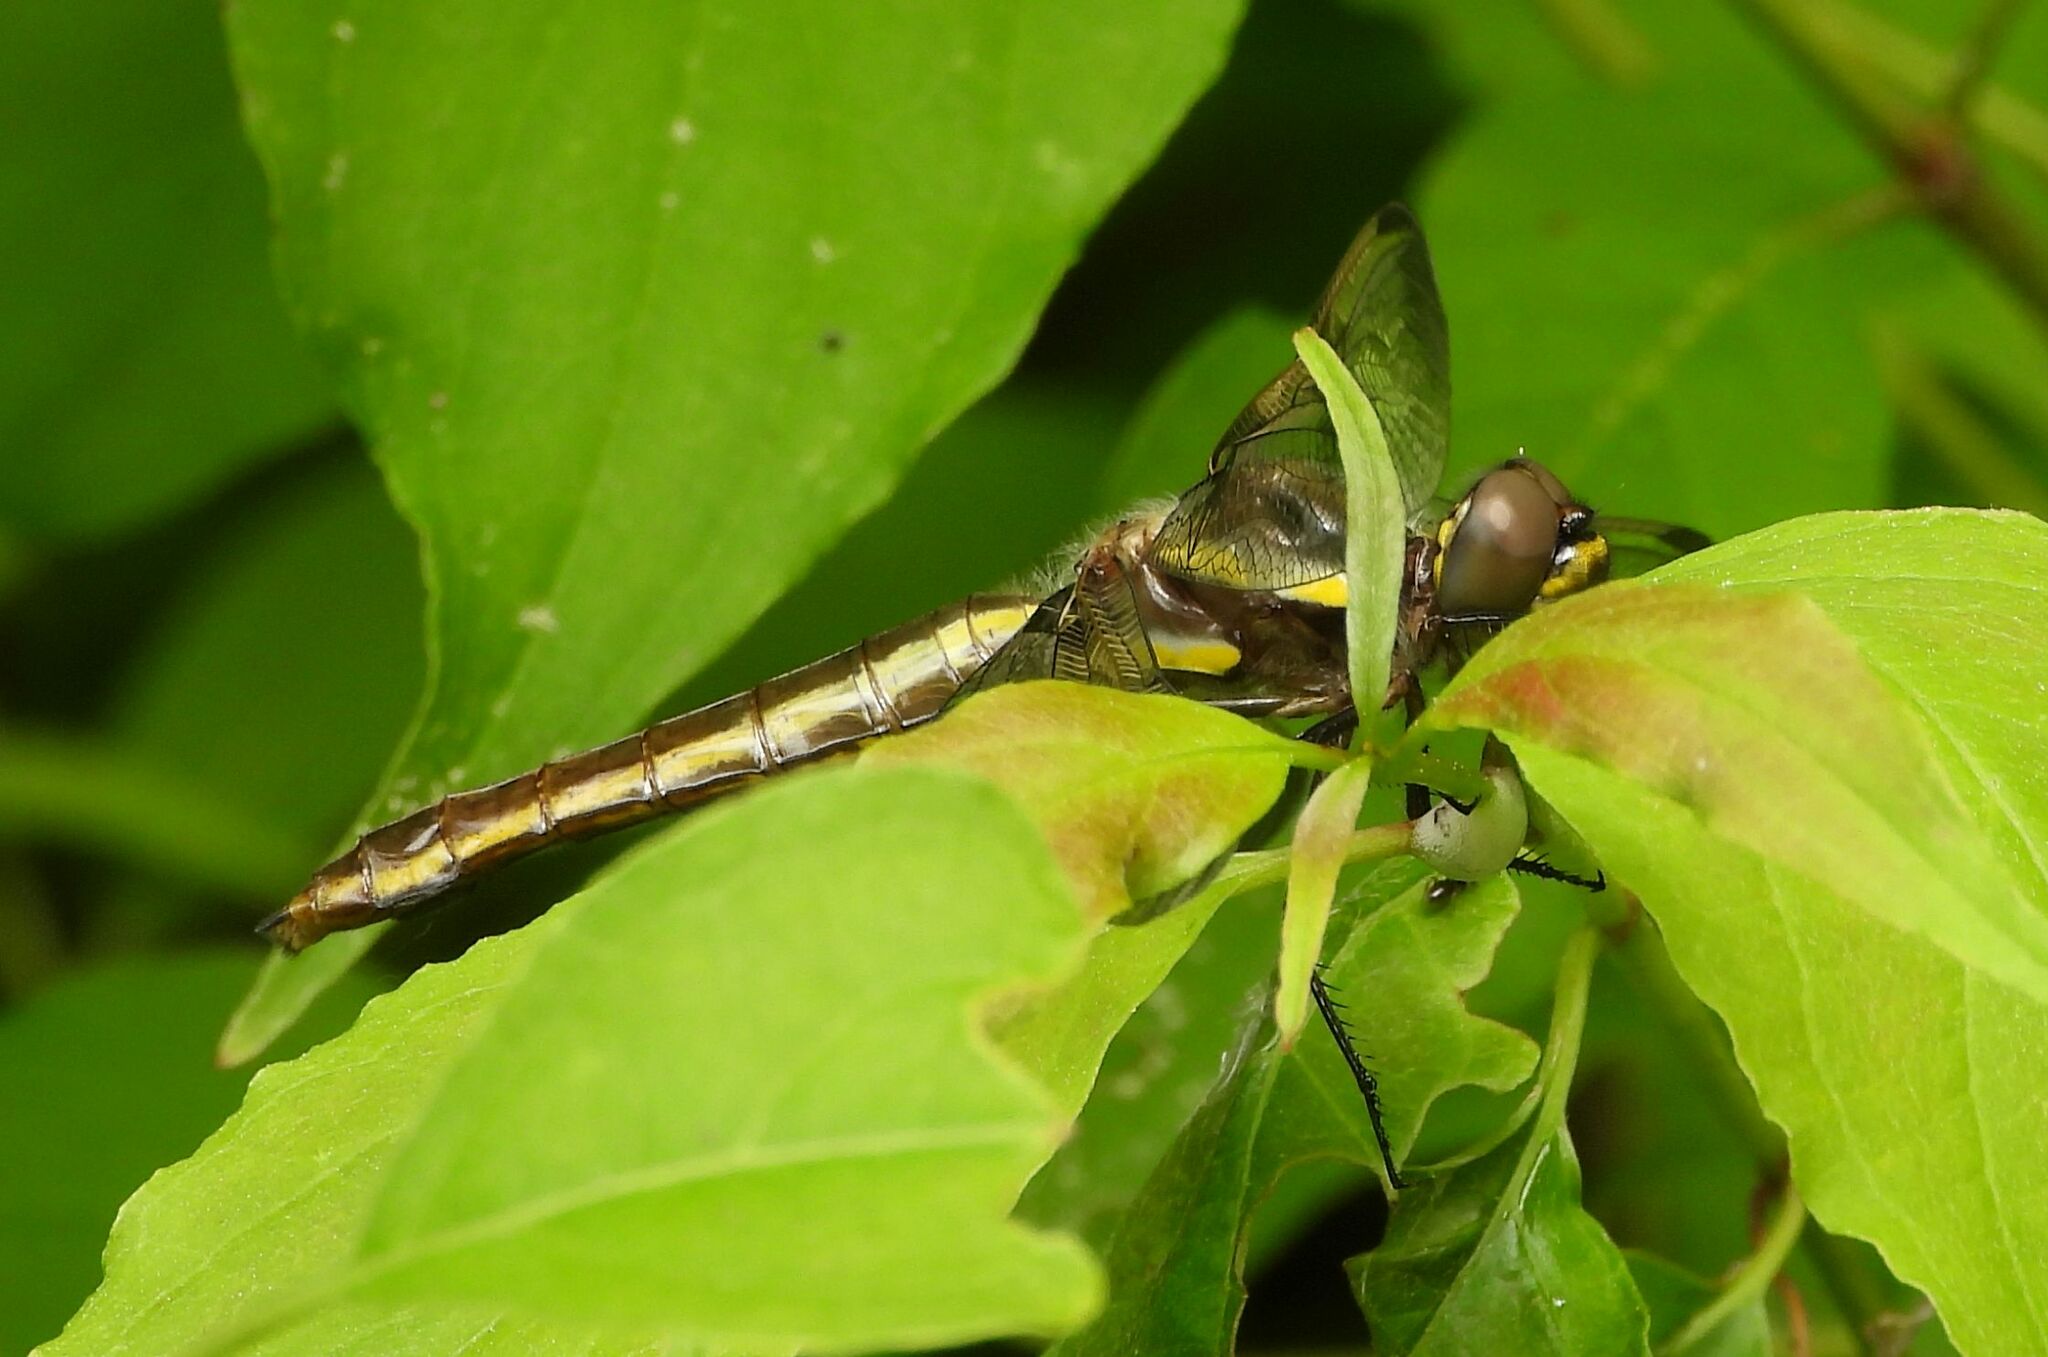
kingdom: Animalia
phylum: Arthropoda
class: Insecta
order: Odonata
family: Libellulidae
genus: Libellula
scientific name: Libellula pulchella
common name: Twelve-spotted skimmer
